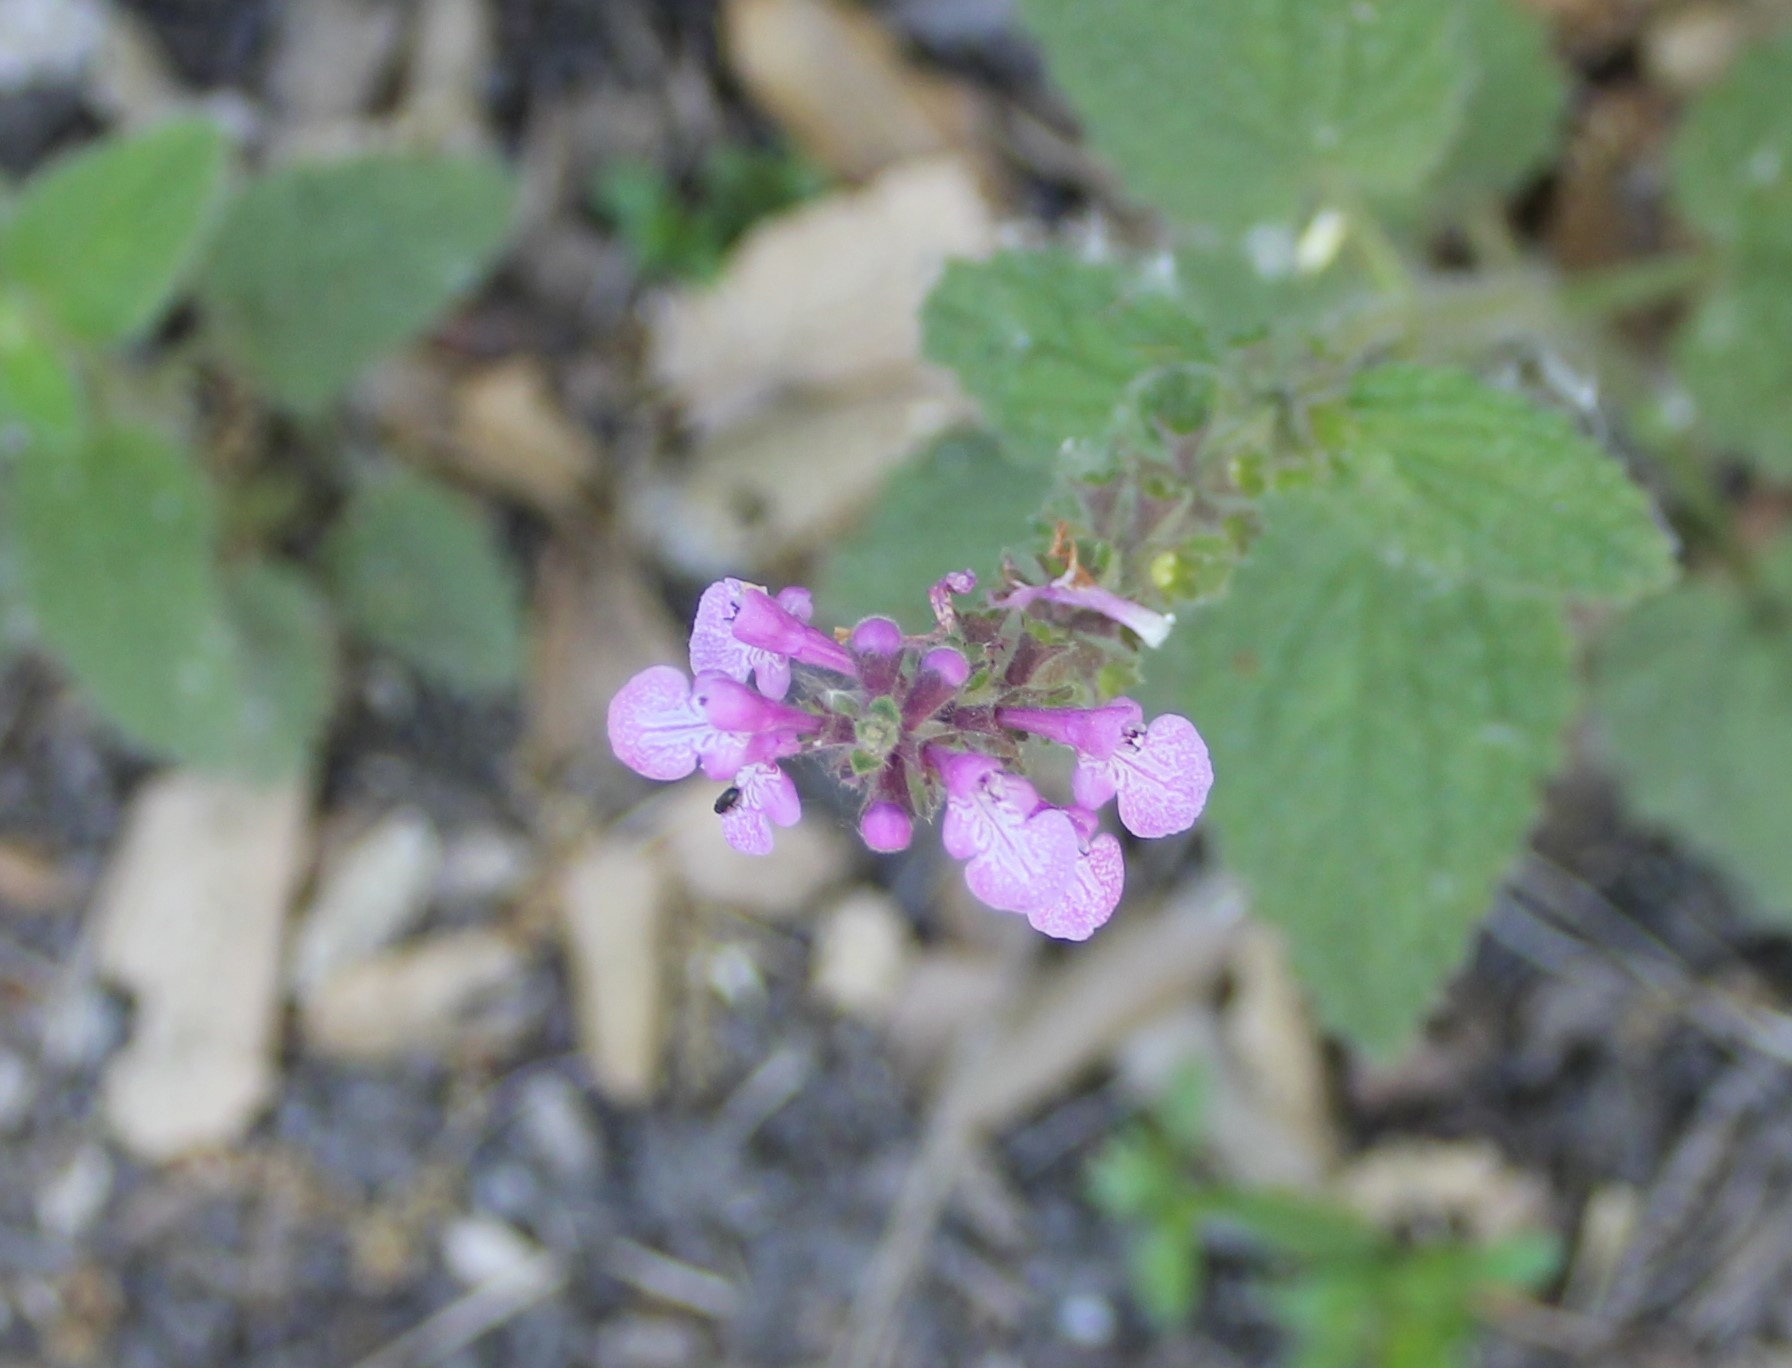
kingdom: Plantae
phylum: Tracheophyta
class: Magnoliopsida
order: Lamiales
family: Lamiaceae
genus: Stachys
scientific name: Stachys bullata
